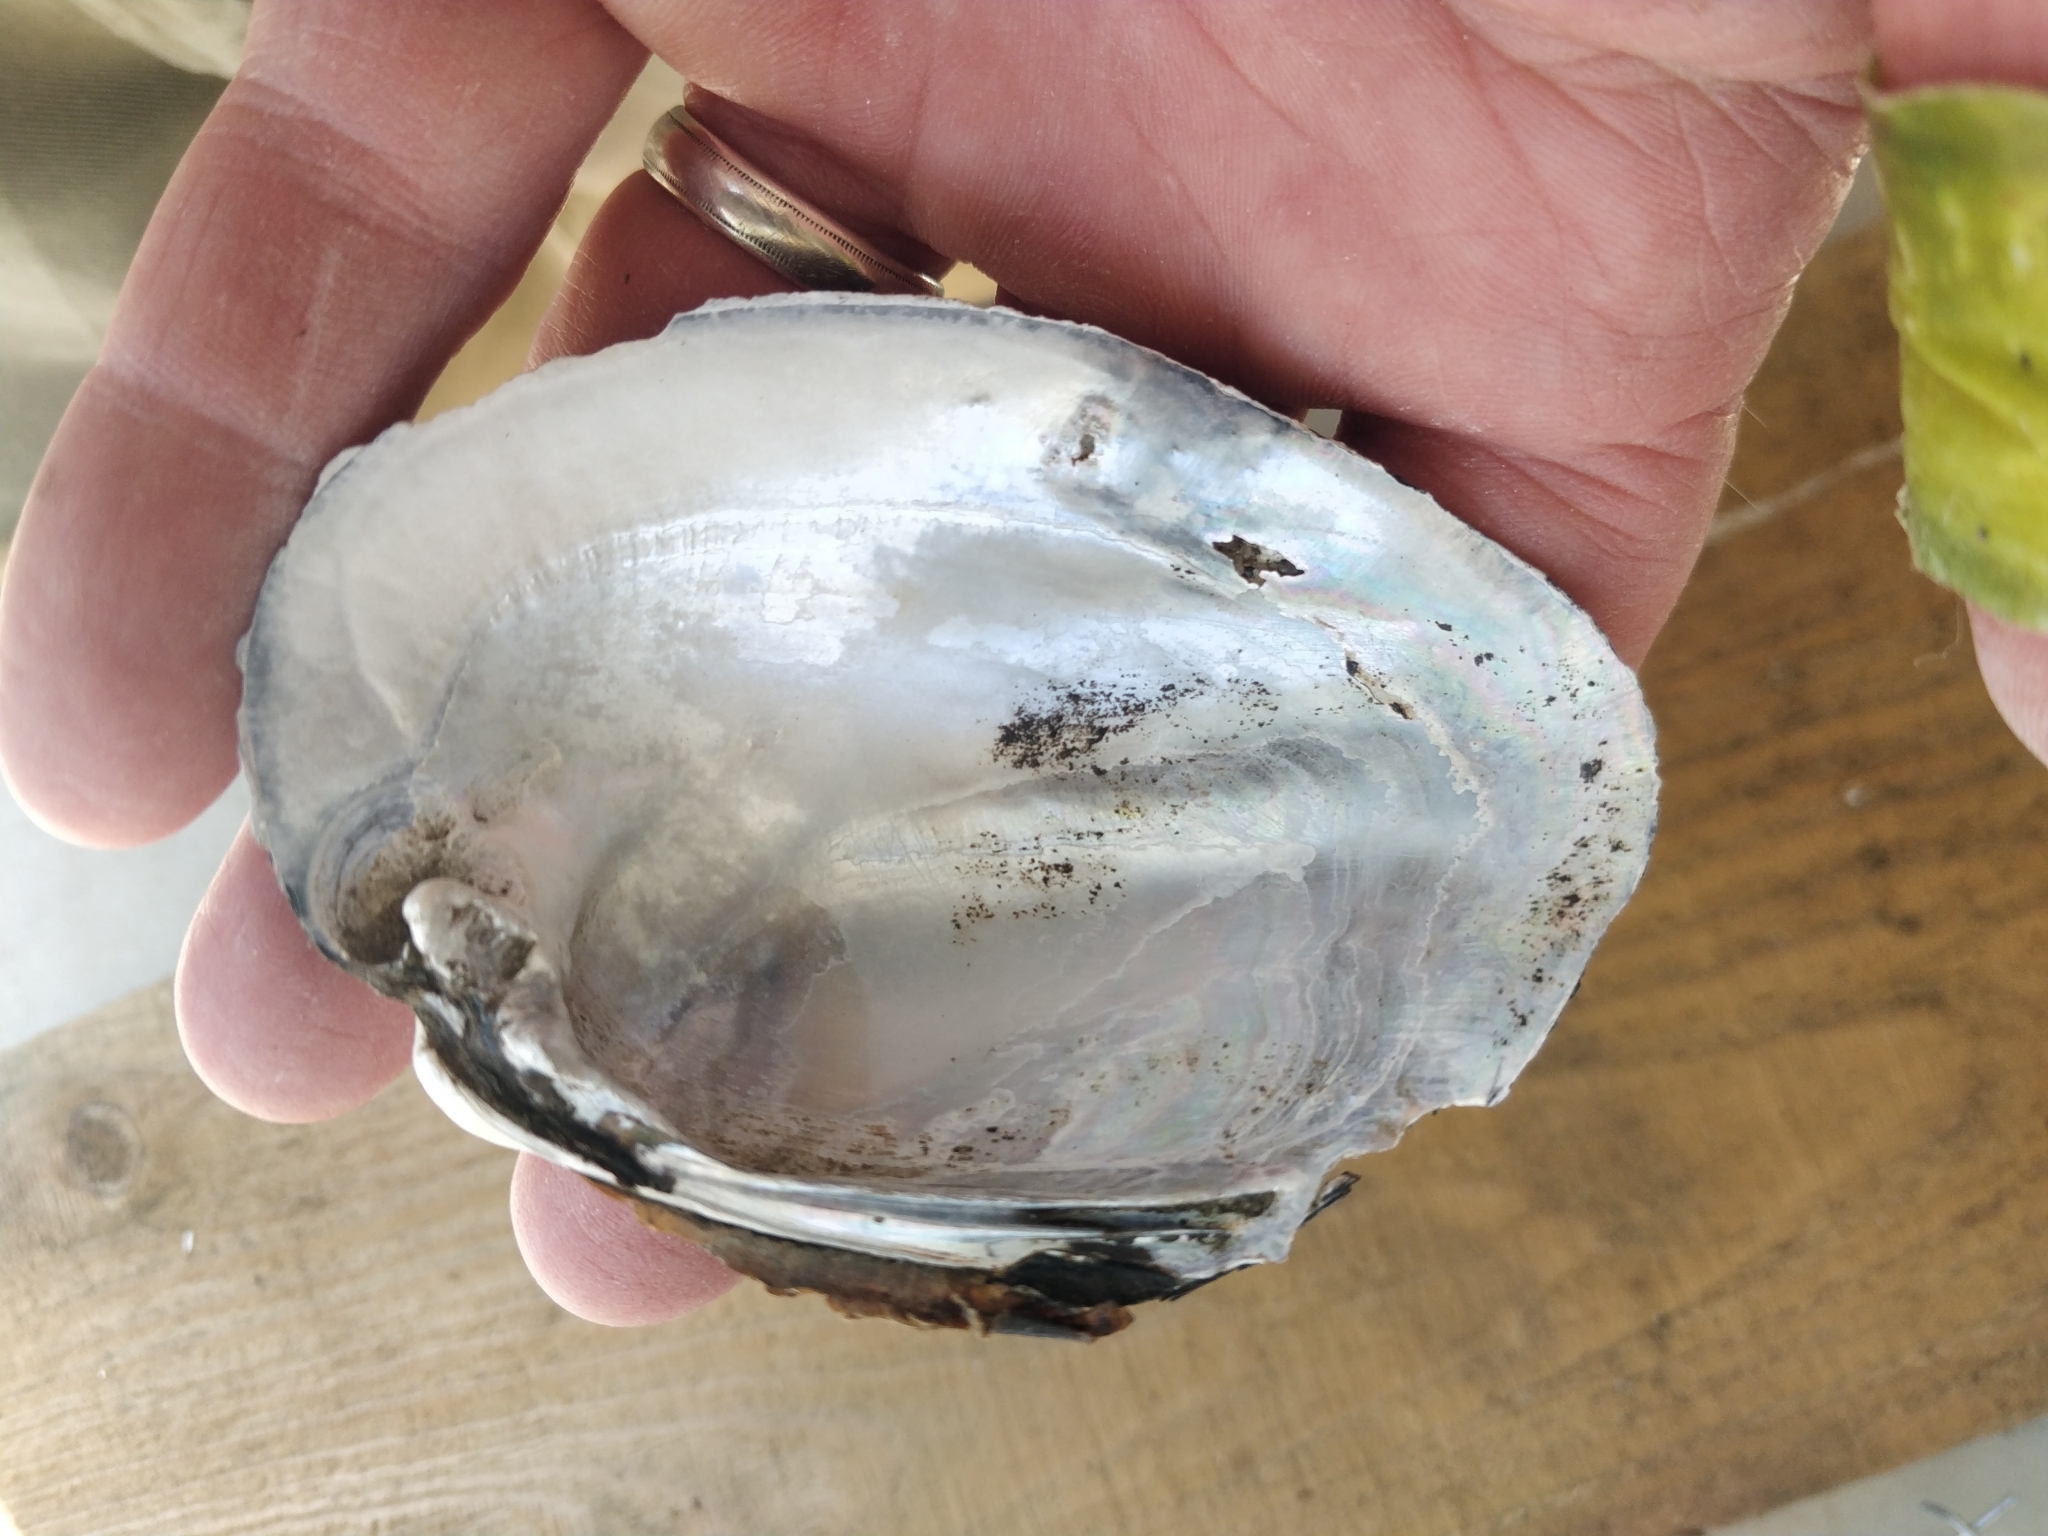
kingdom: Animalia
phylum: Mollusca
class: Bivalvia
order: Unionida
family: Unionidae
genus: Amblema
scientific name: Amblema plicata
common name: Threeridge
